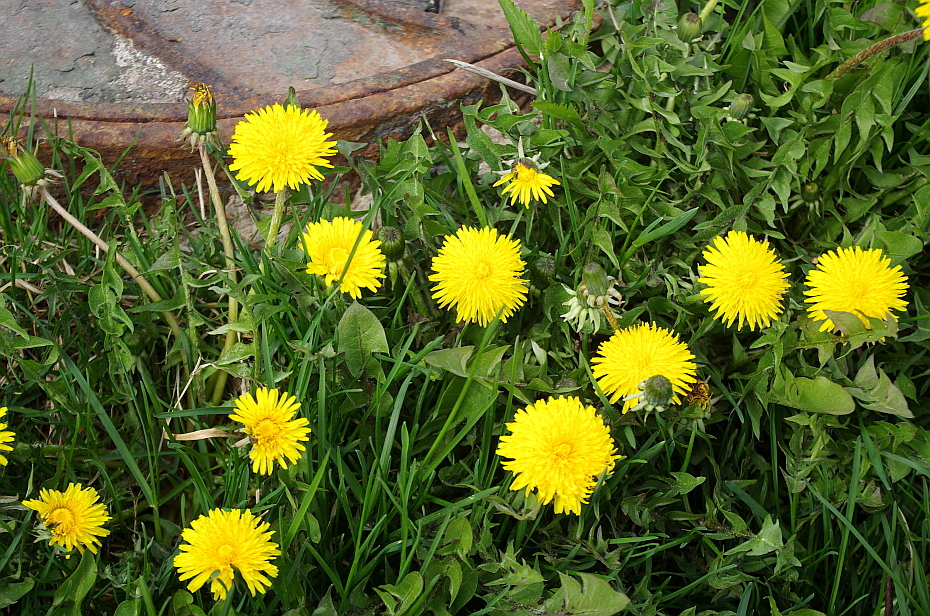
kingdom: Plantae
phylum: Tracheophyta
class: Magnoliopsida
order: Asterales
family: Asteraceae
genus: Taraxacum
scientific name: Taraxacum officinale
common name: Common dandelion
